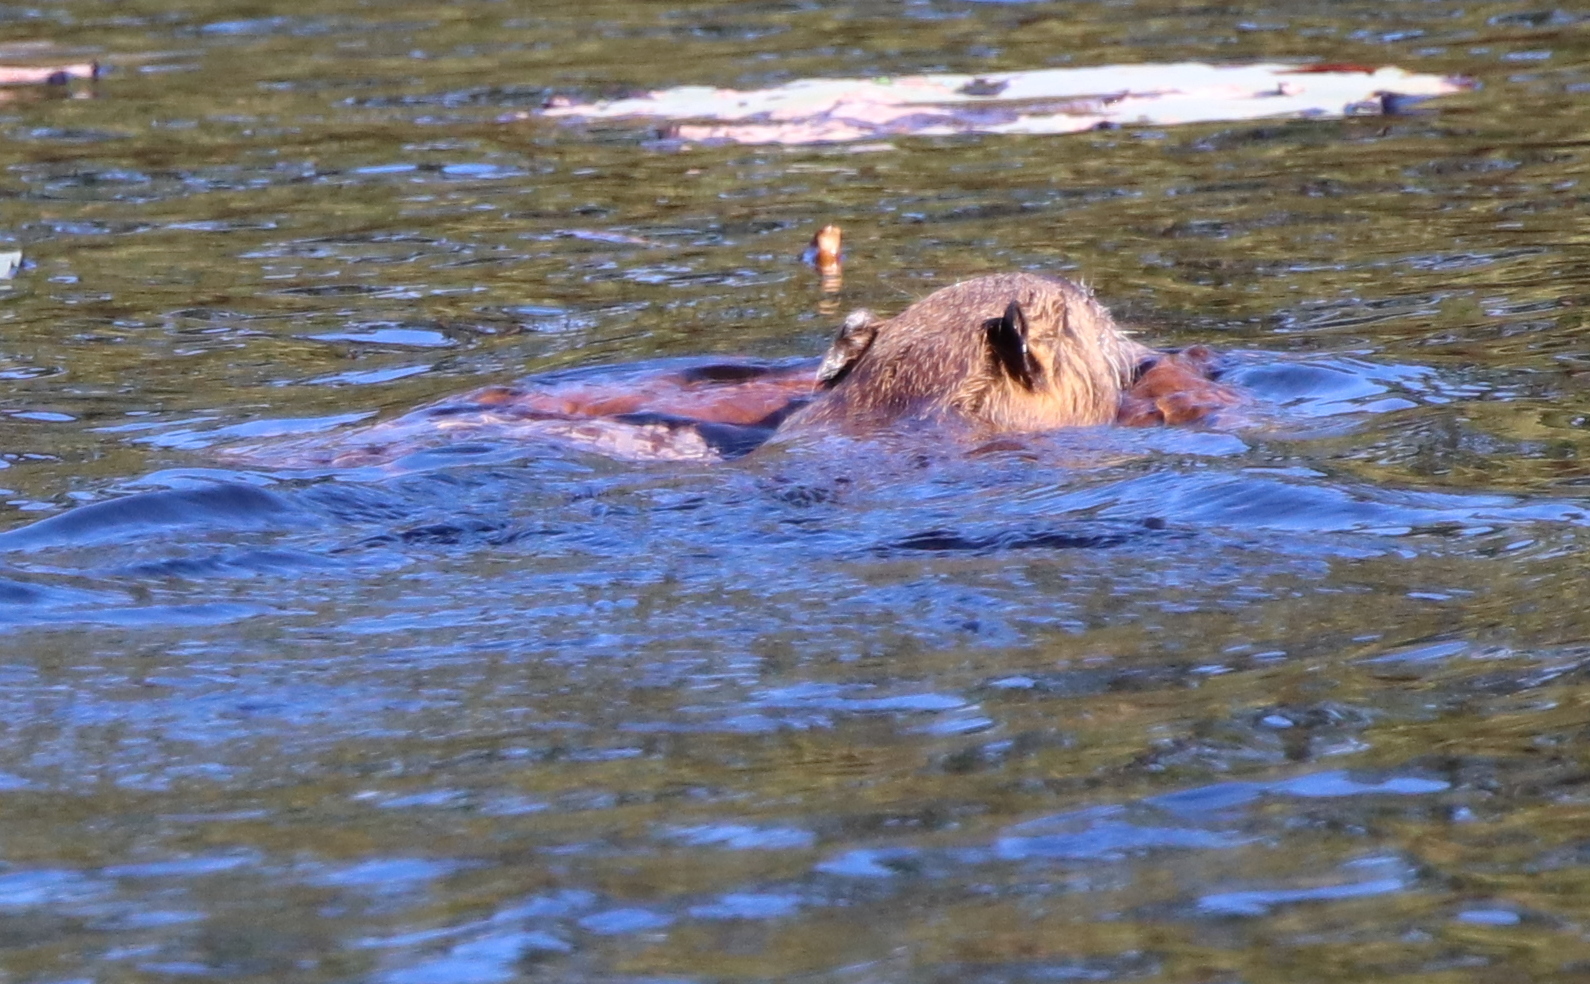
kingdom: Animalia
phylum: Chordata
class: Mammalia
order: Rodentia
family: Myocastoridae
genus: Myocastor
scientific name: Myocastor coypus
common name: Coypu
